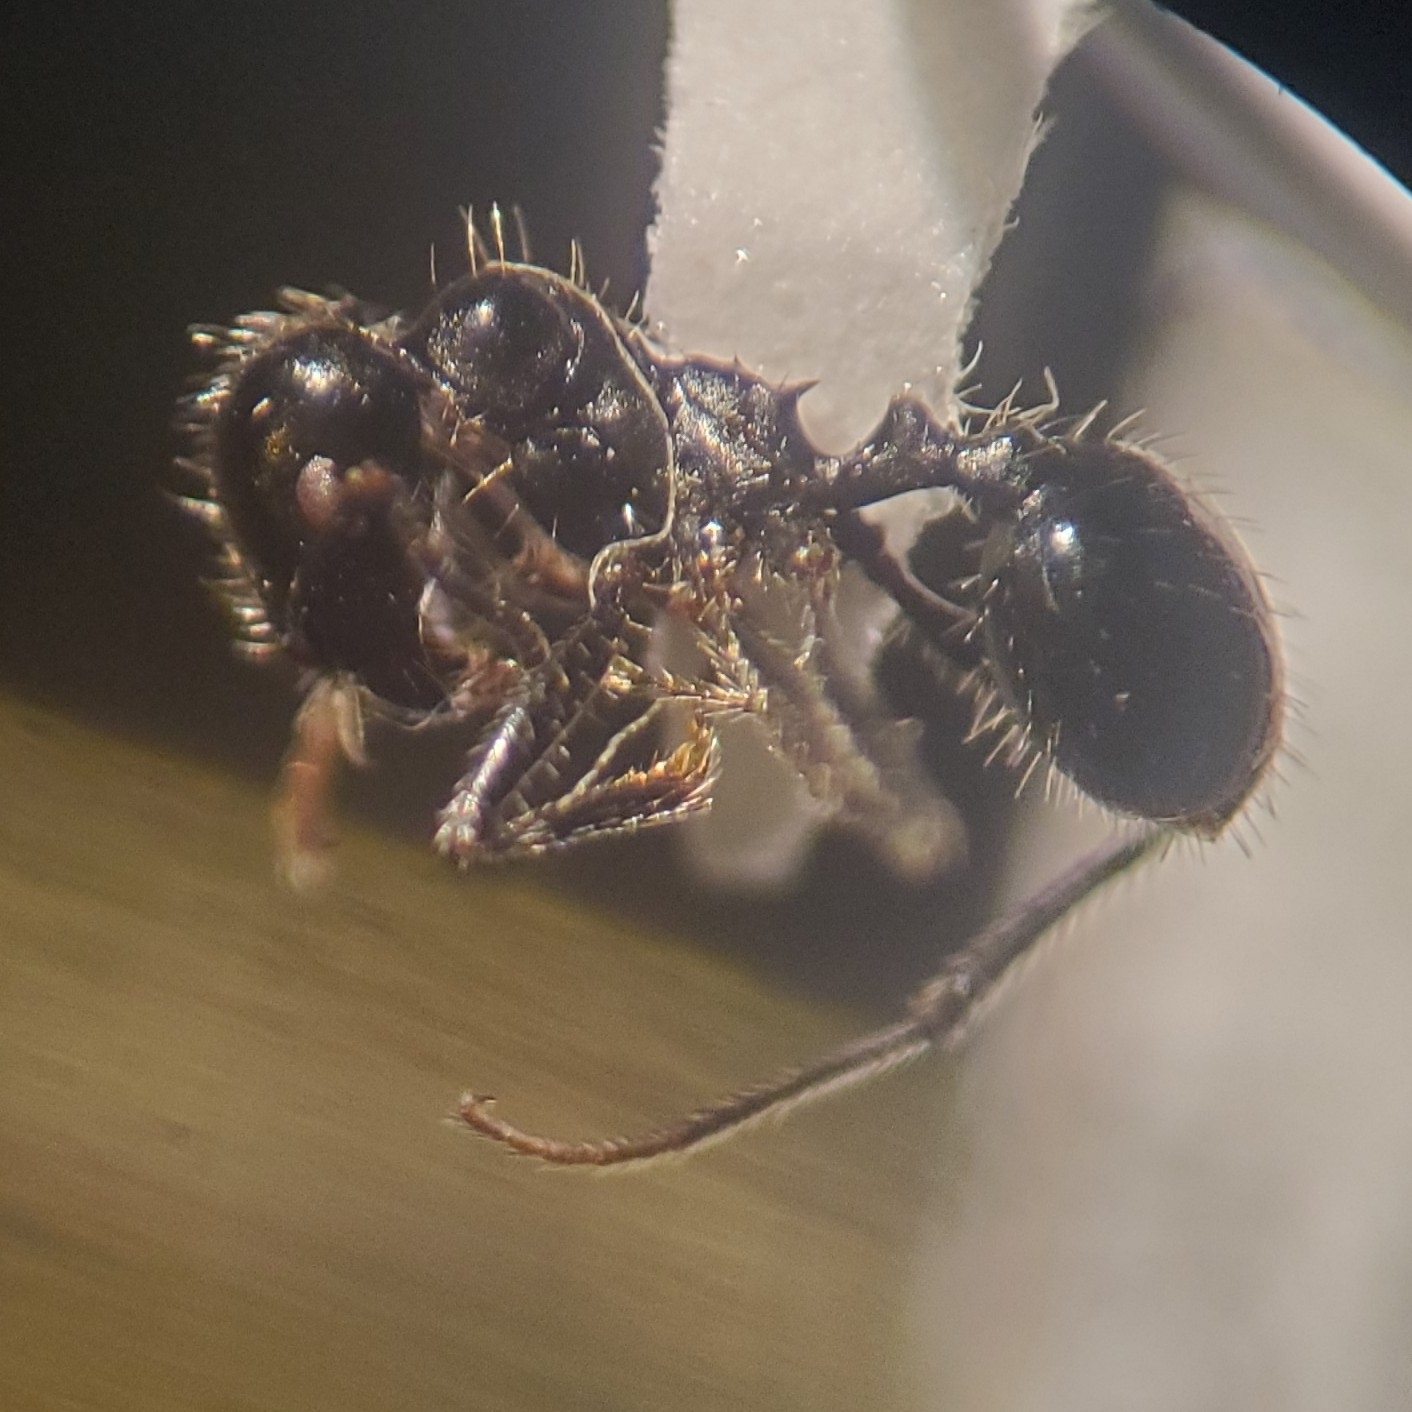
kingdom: Animalia
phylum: Arthropoda
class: Insecta
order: Hymenoptera
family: Formicidae
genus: Messor
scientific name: Messor pergandei
